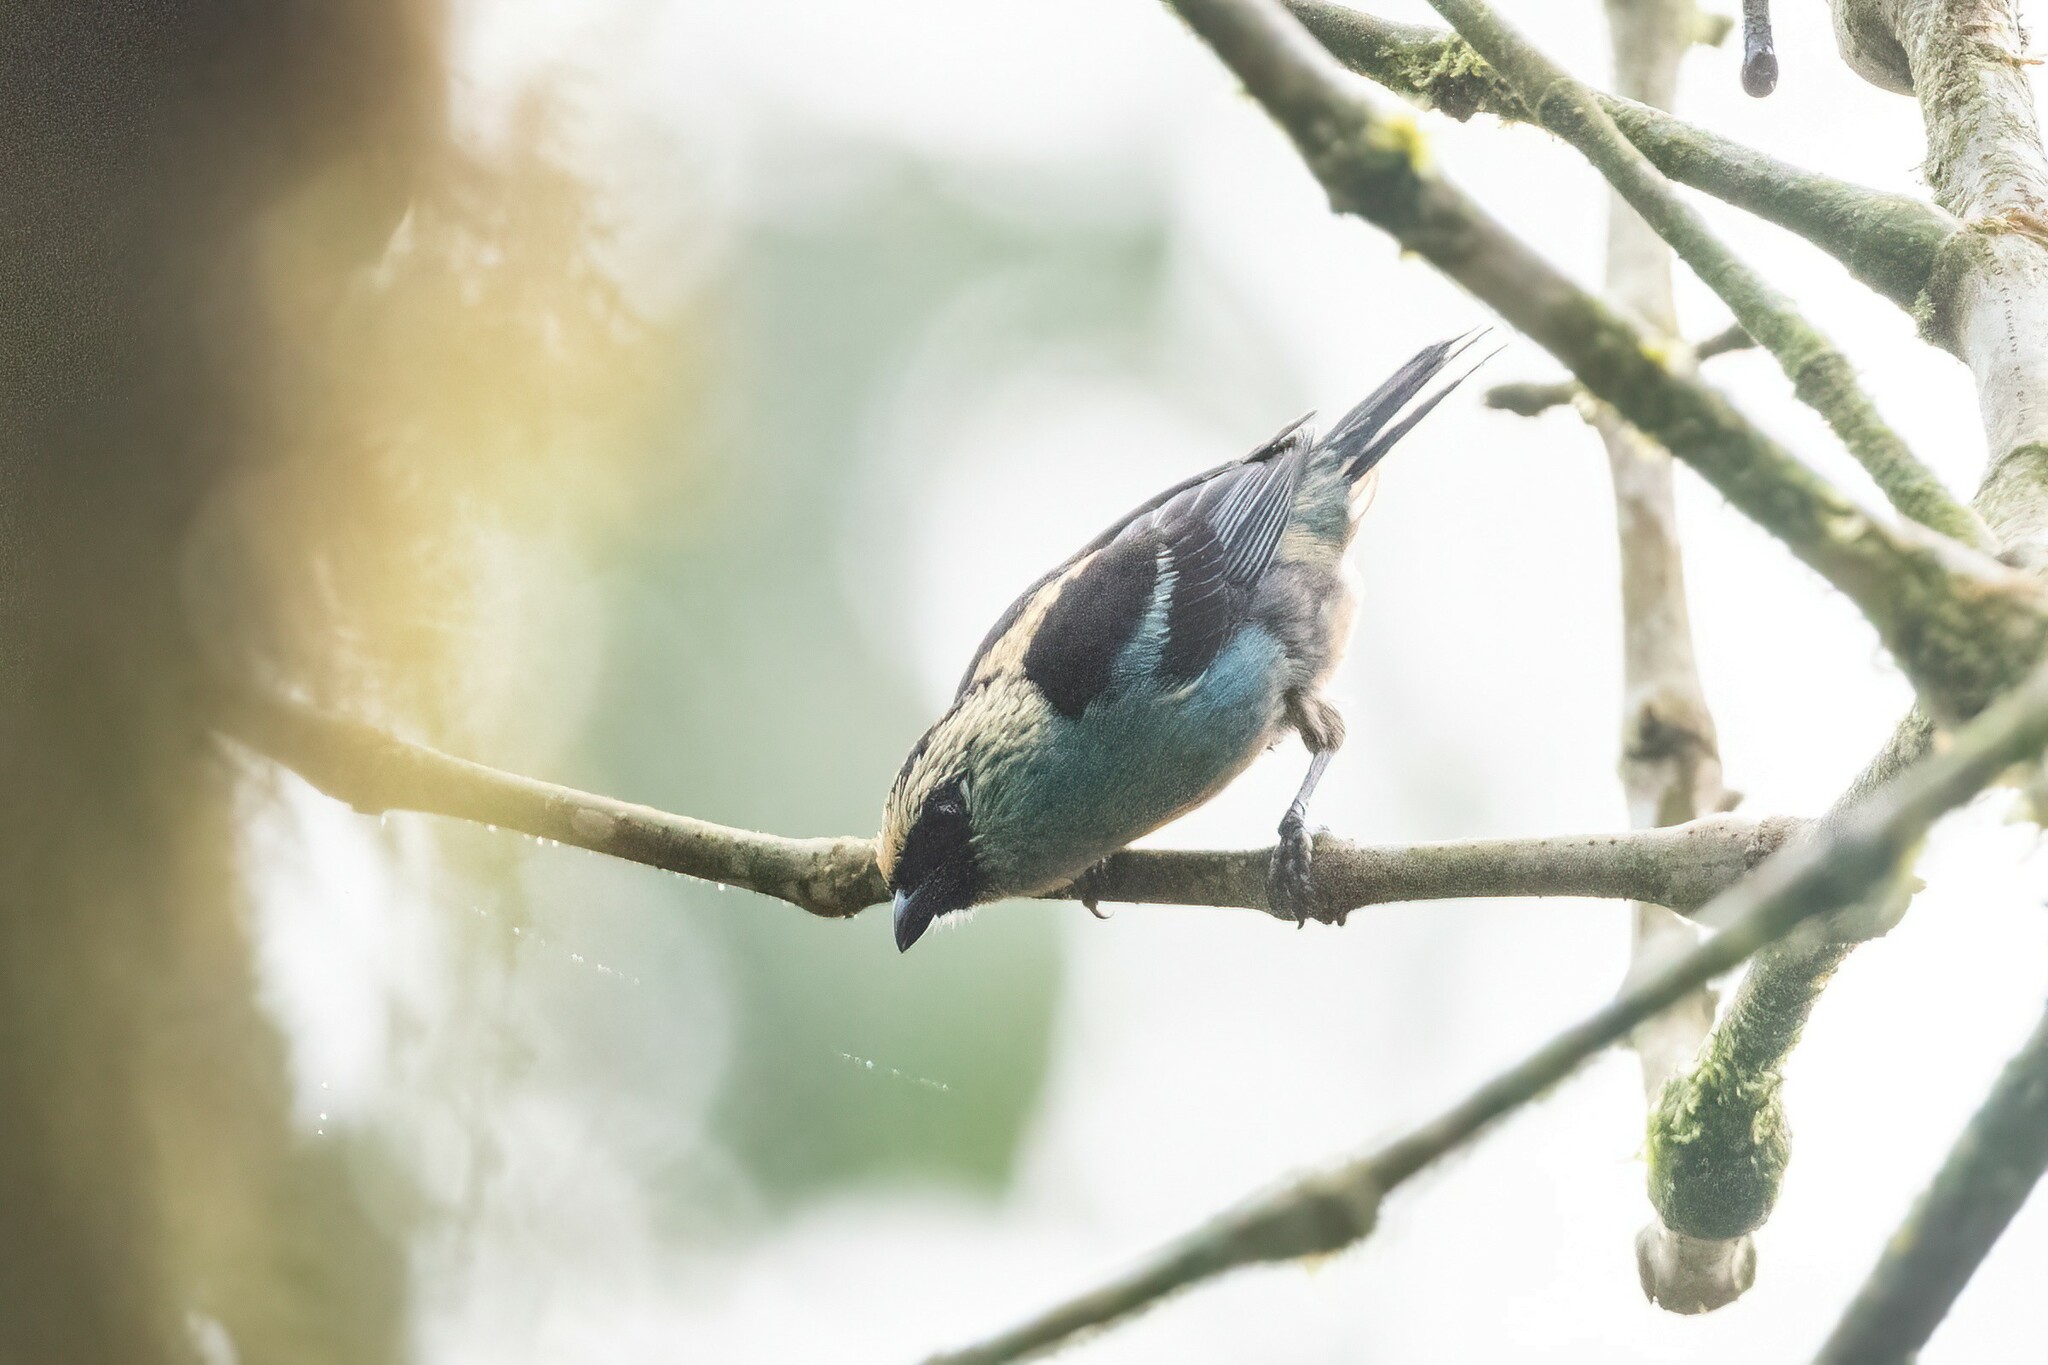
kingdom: Animalia
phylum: Chordata
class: Aves
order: Passeriformes
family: Thraupidae
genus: Tangara
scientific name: Tangara labradorides
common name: Metallic-green tanager
